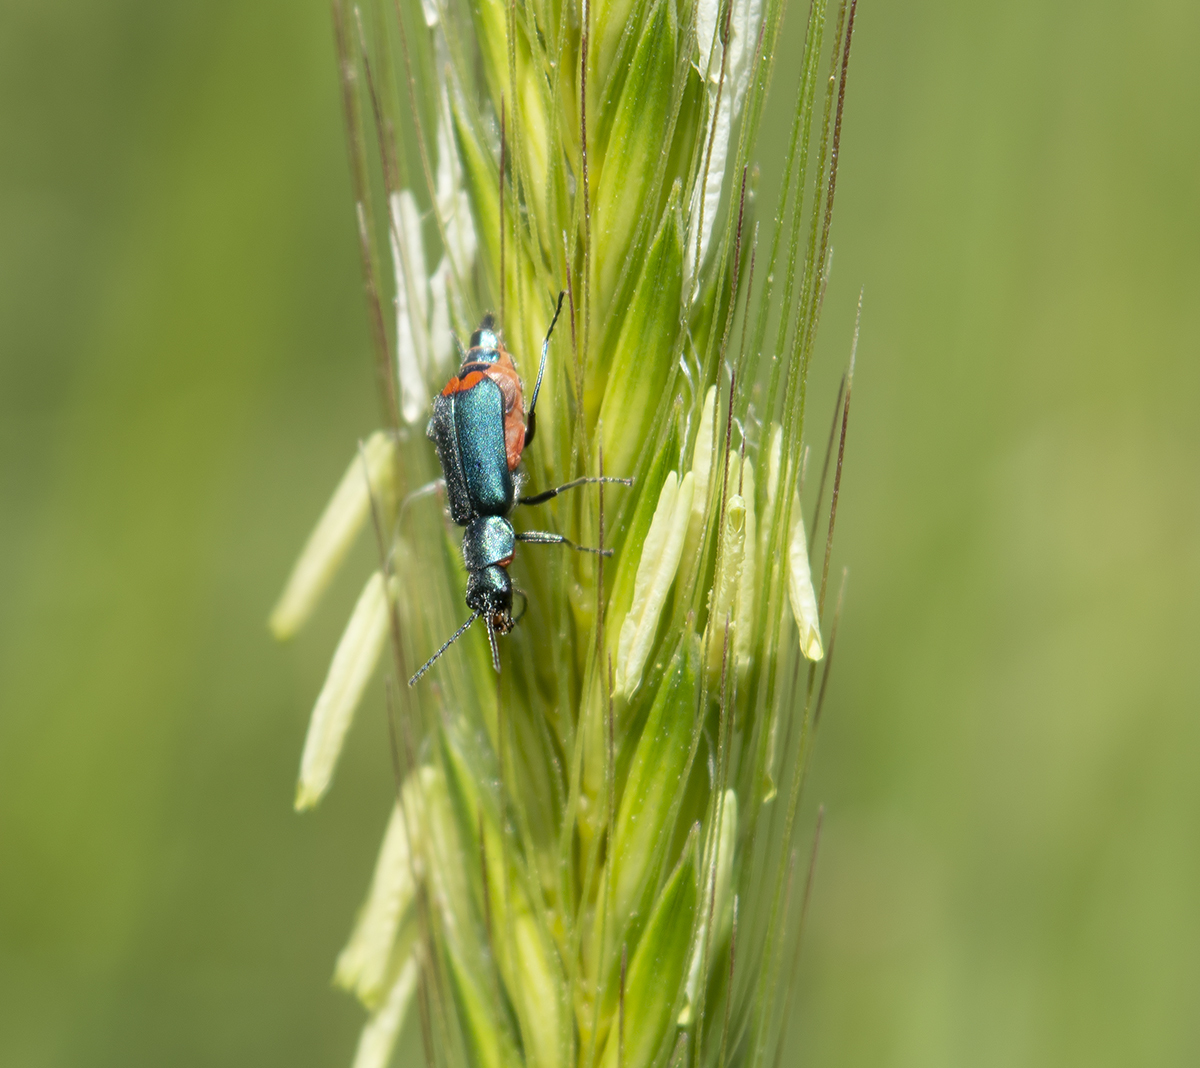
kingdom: Animalia
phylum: Arthropoda
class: Insecta
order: Coleoptera
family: Malachiidae
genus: Clanoptilus
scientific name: Clanoptilus spinipennis
